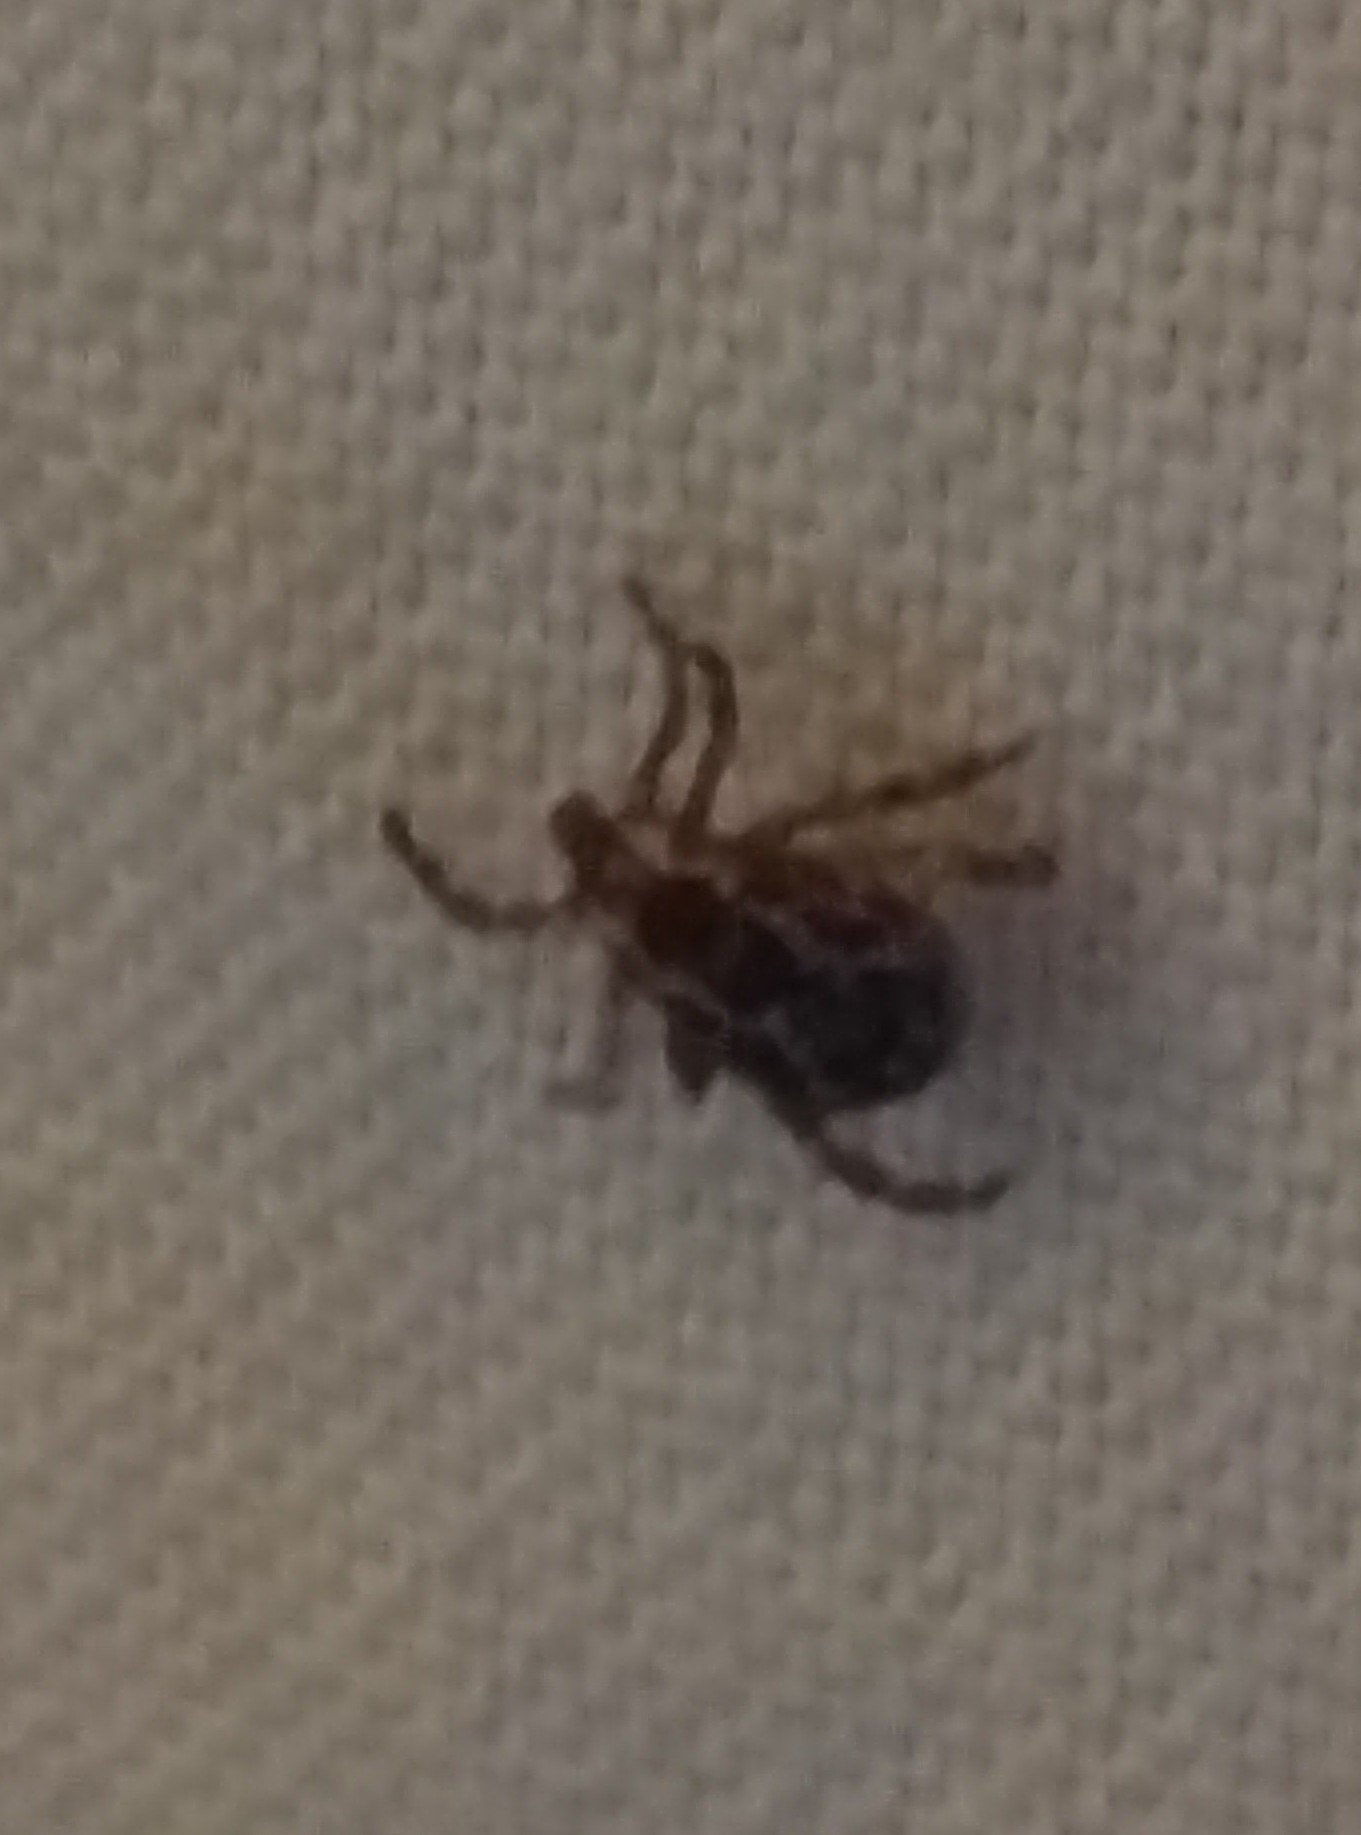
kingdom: Animalia
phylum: Arthropoda
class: Arachnida
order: Ixodida
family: Ixodidae
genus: Dermacentor
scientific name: Dermacentor variabilis
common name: American dog tick
